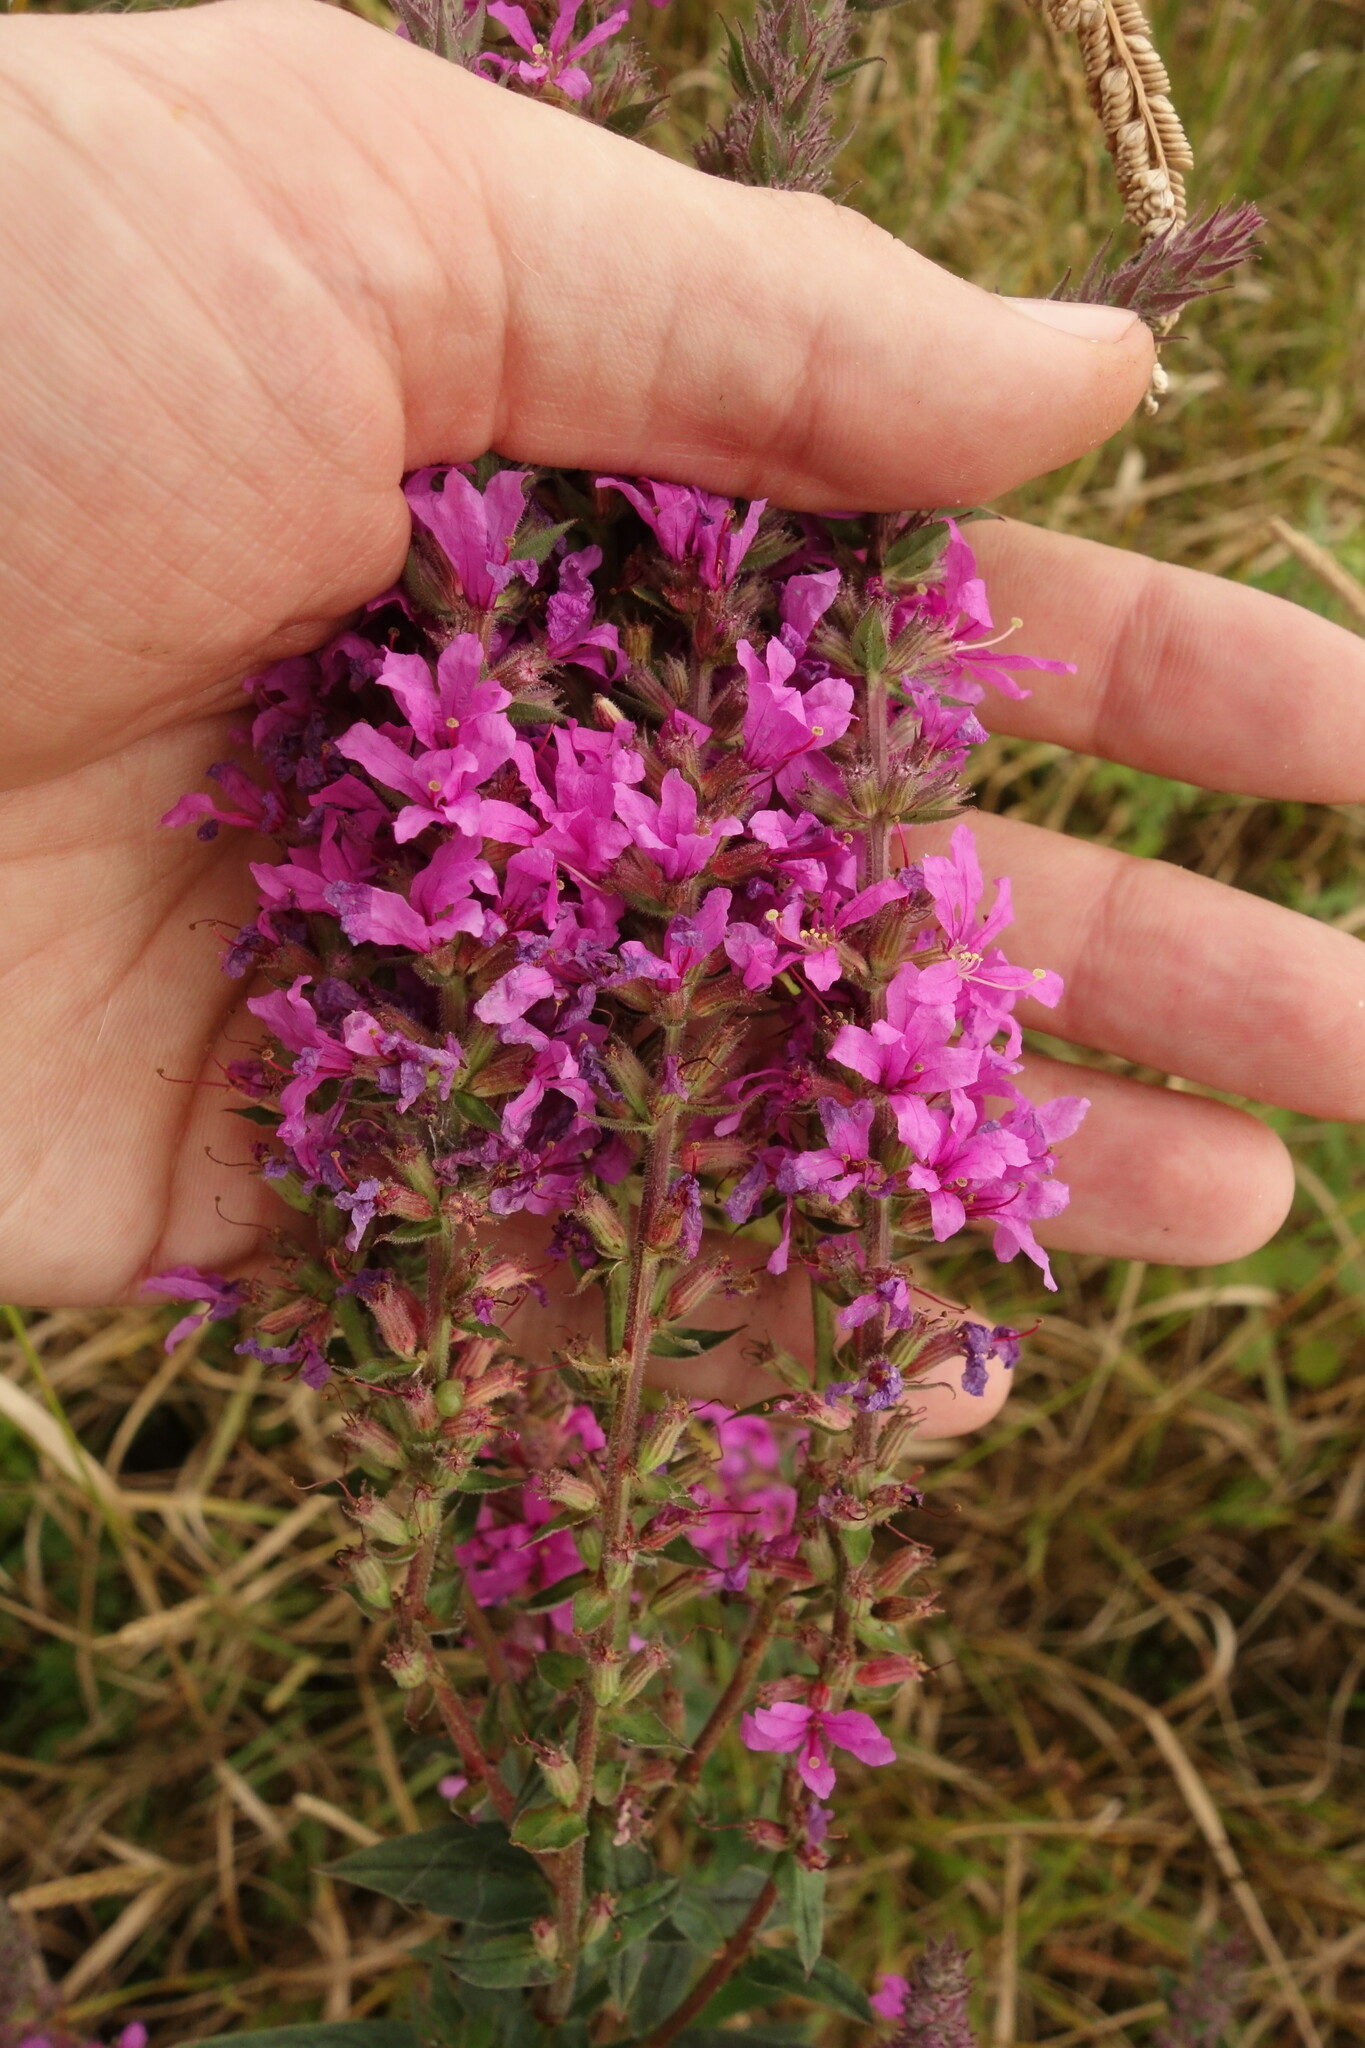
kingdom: Plantae
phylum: Tracheophyta
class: Magnoliopsida
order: Myrtales
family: Lythraceae
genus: Lythrum
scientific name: Lythrum salicaria
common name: Purple loosestrife
